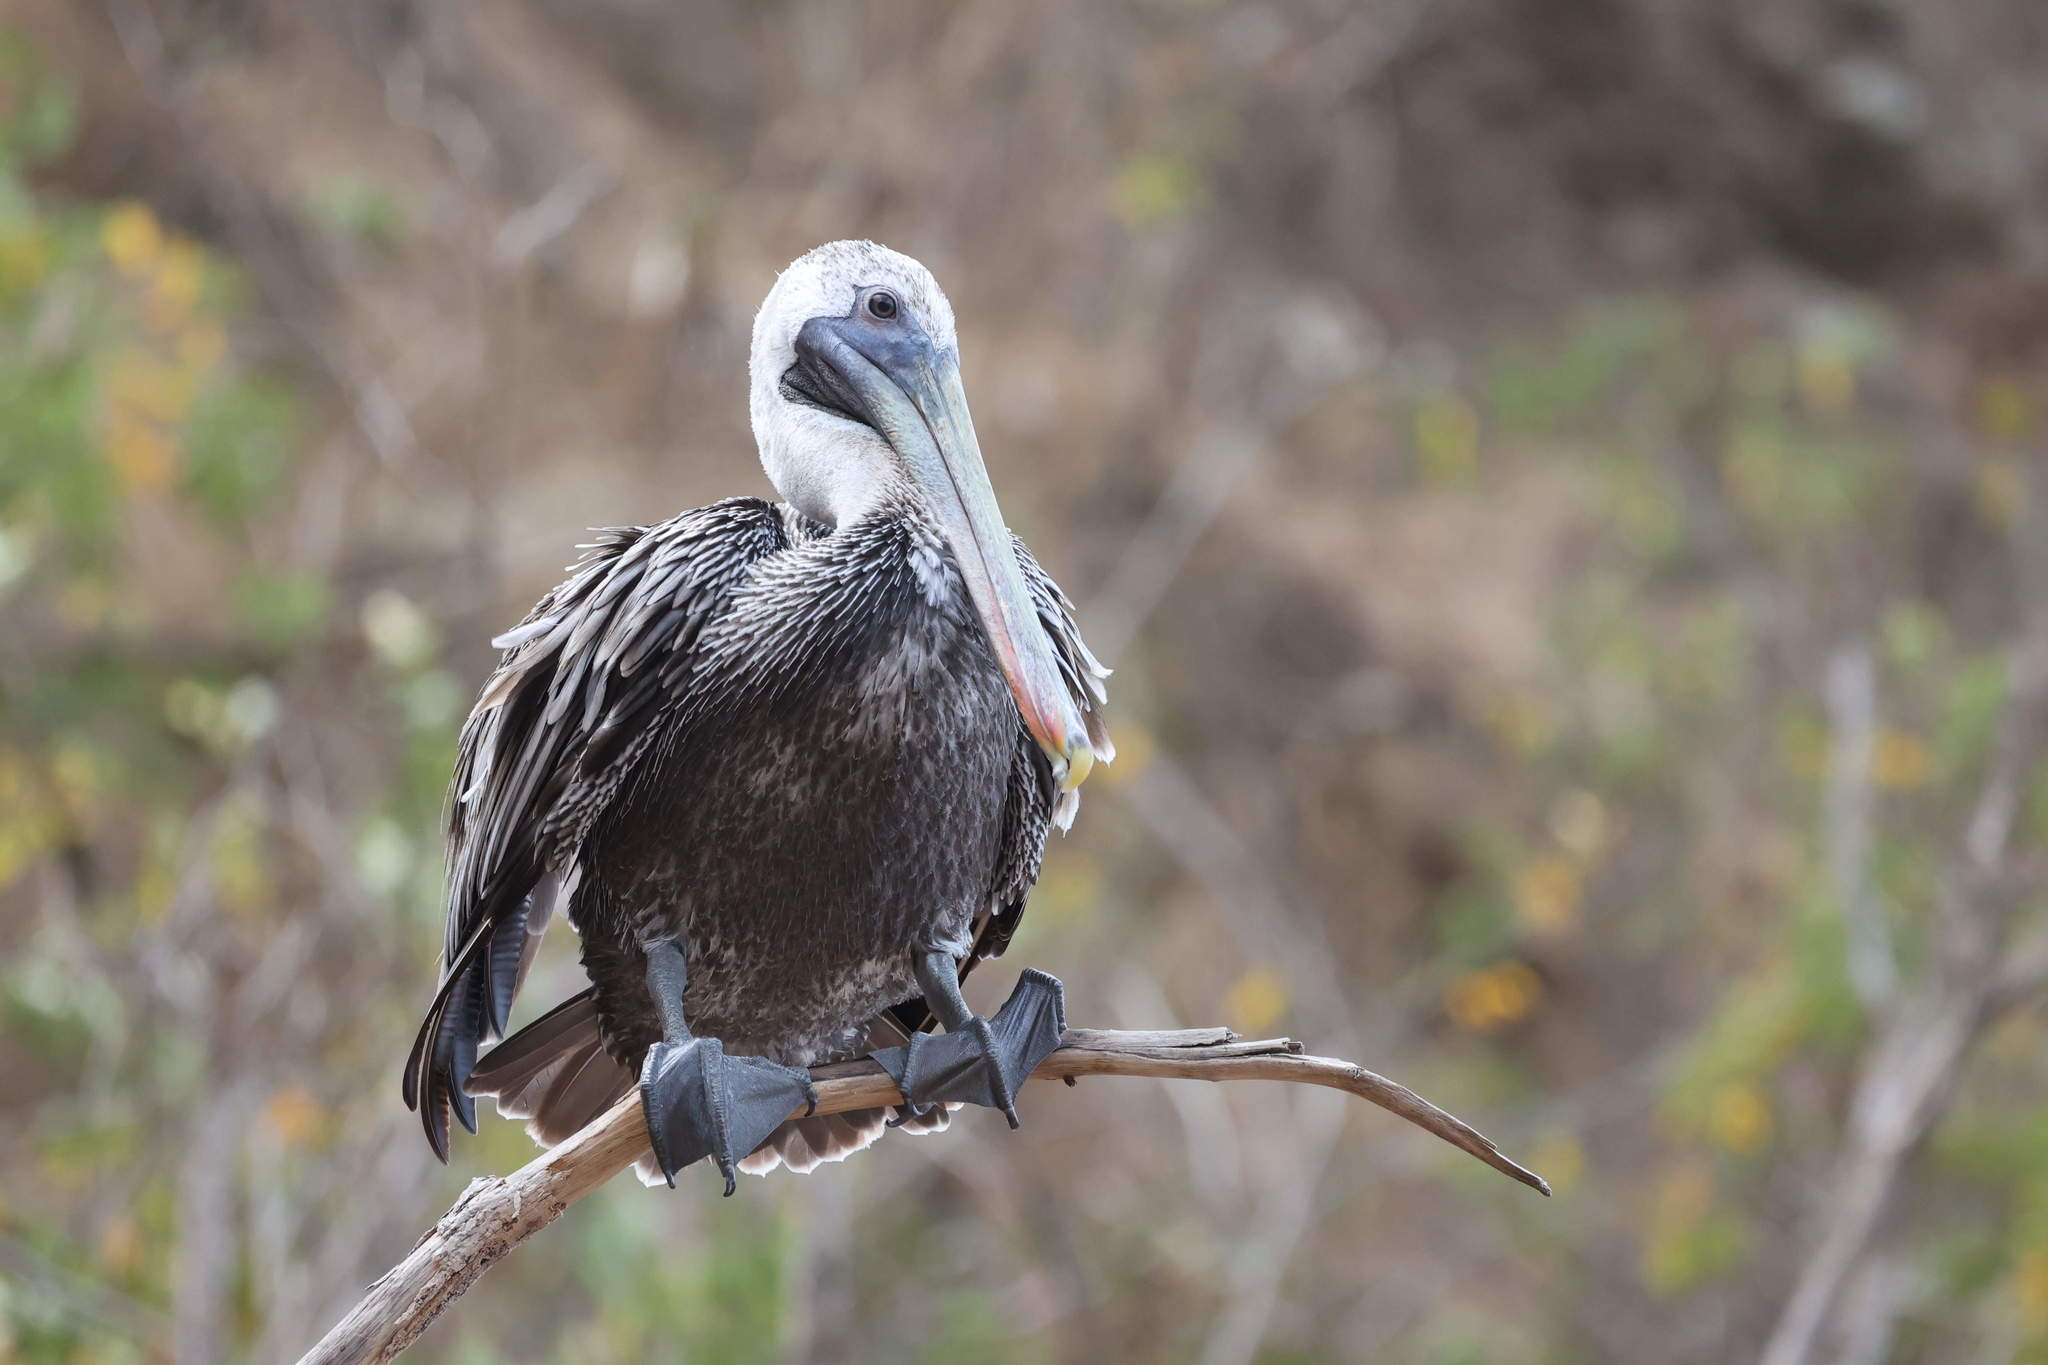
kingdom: Animalia
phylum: Chordata
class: Aves
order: Pelecaniformes
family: Pelecanidae
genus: Pelecanus
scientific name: Pelecanus occidentalis
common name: Brown pelican
